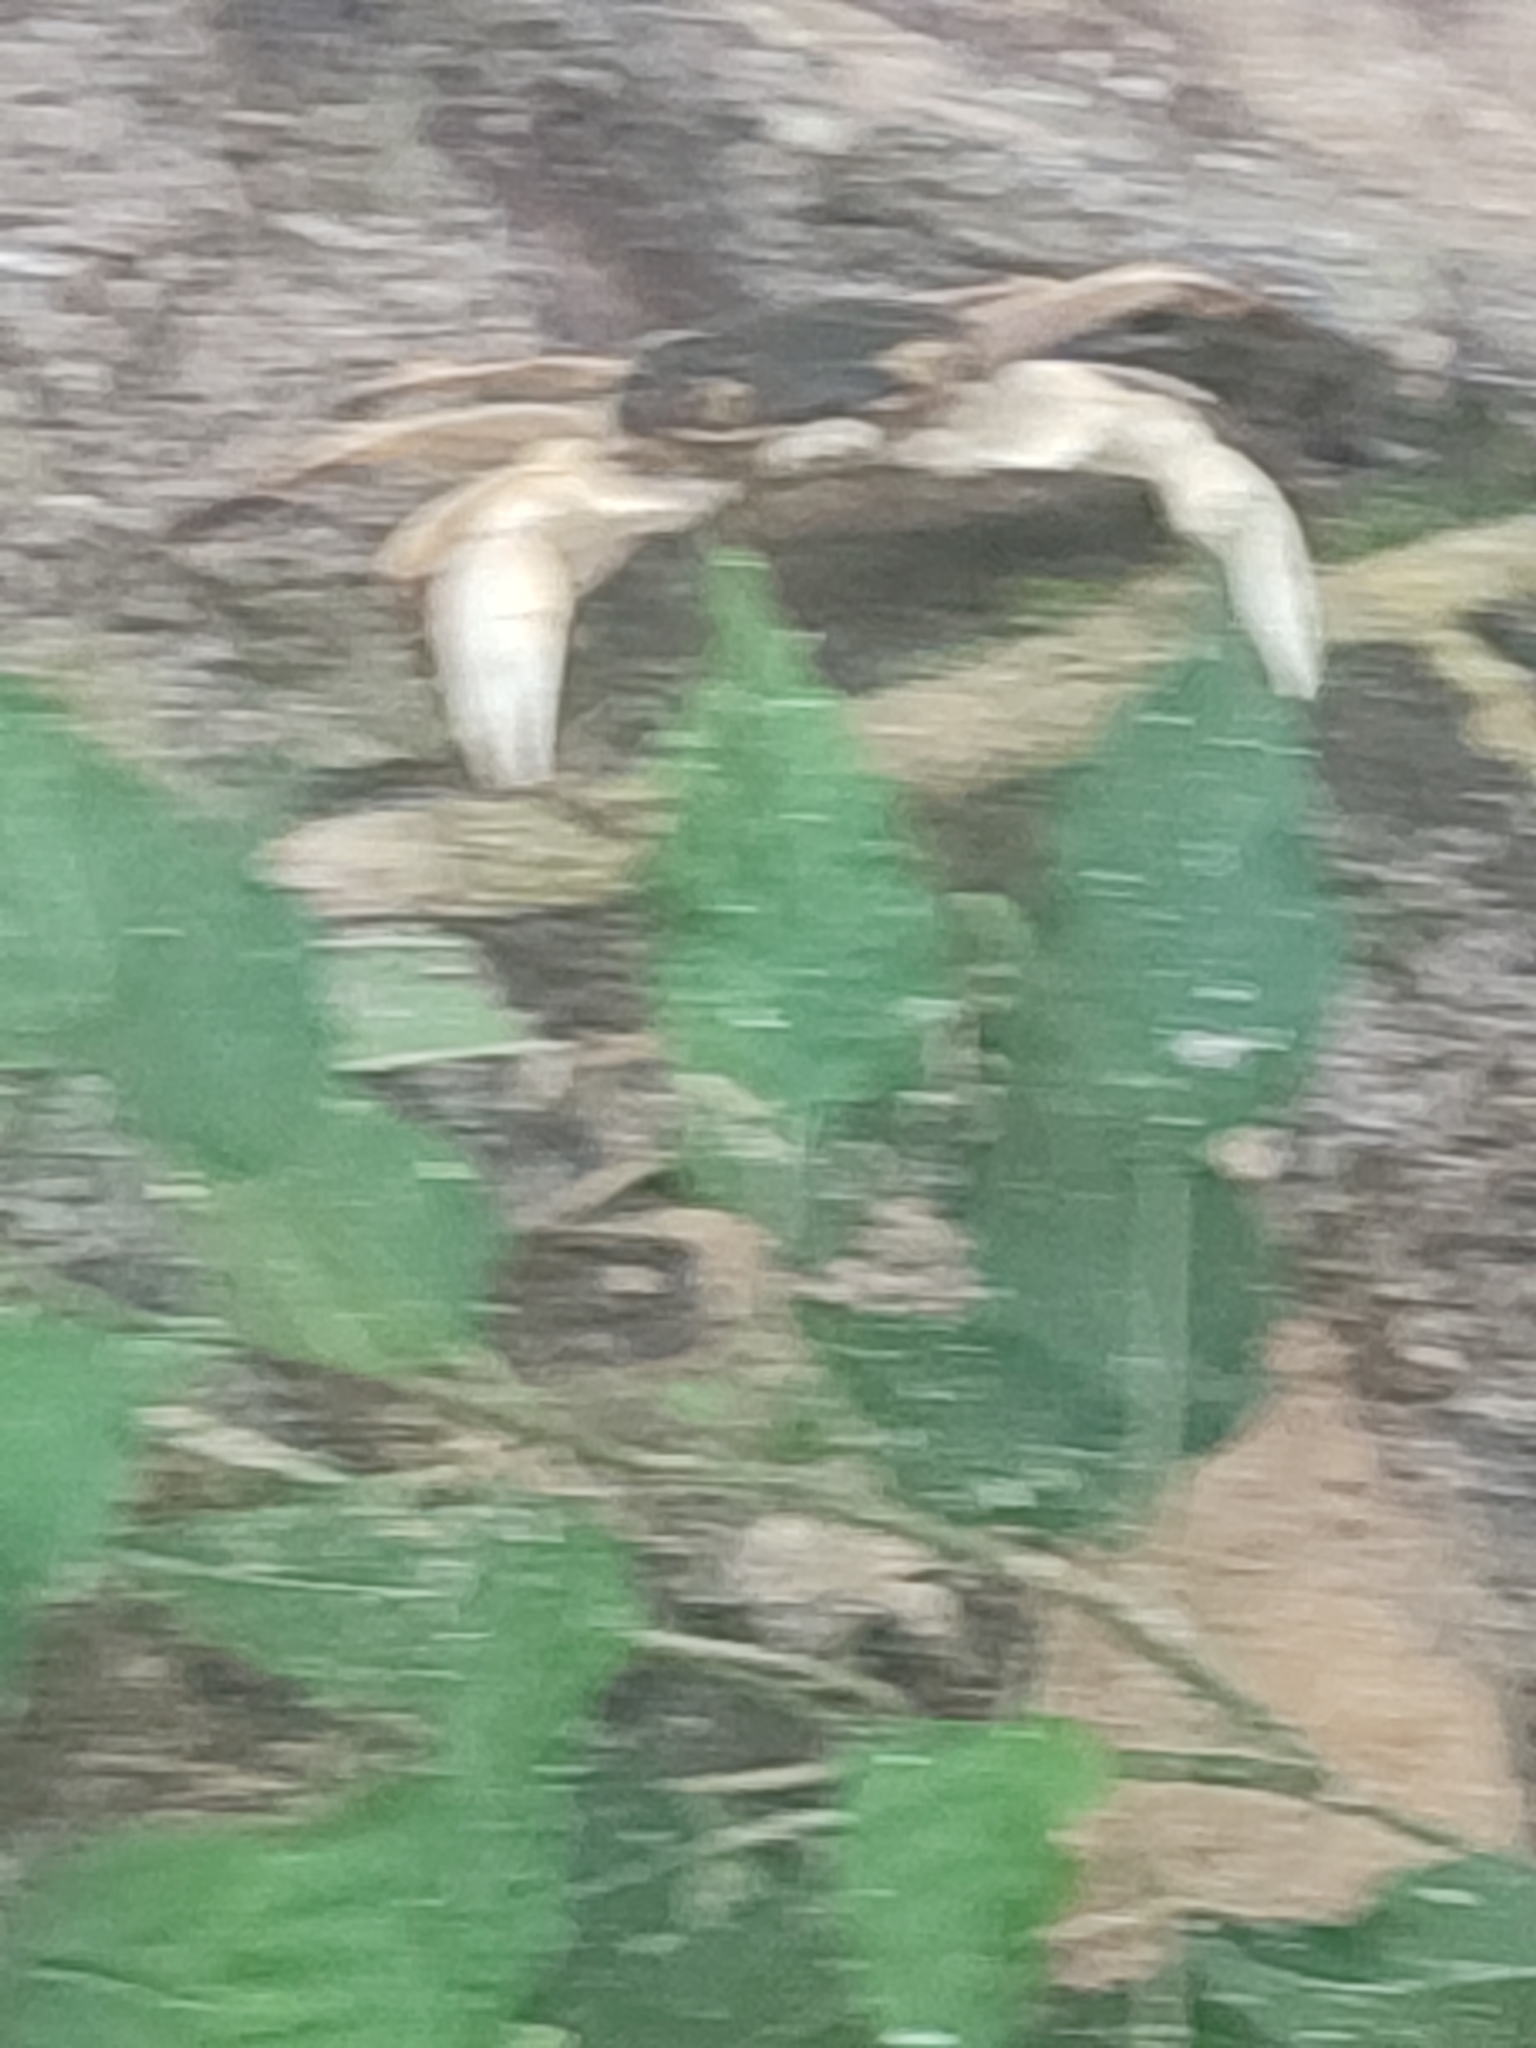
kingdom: Animalia
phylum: Arthropoda
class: Malacostraca
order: Decapoda
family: Grapsidae
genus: Geograpsus
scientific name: Geograpsus grayi
